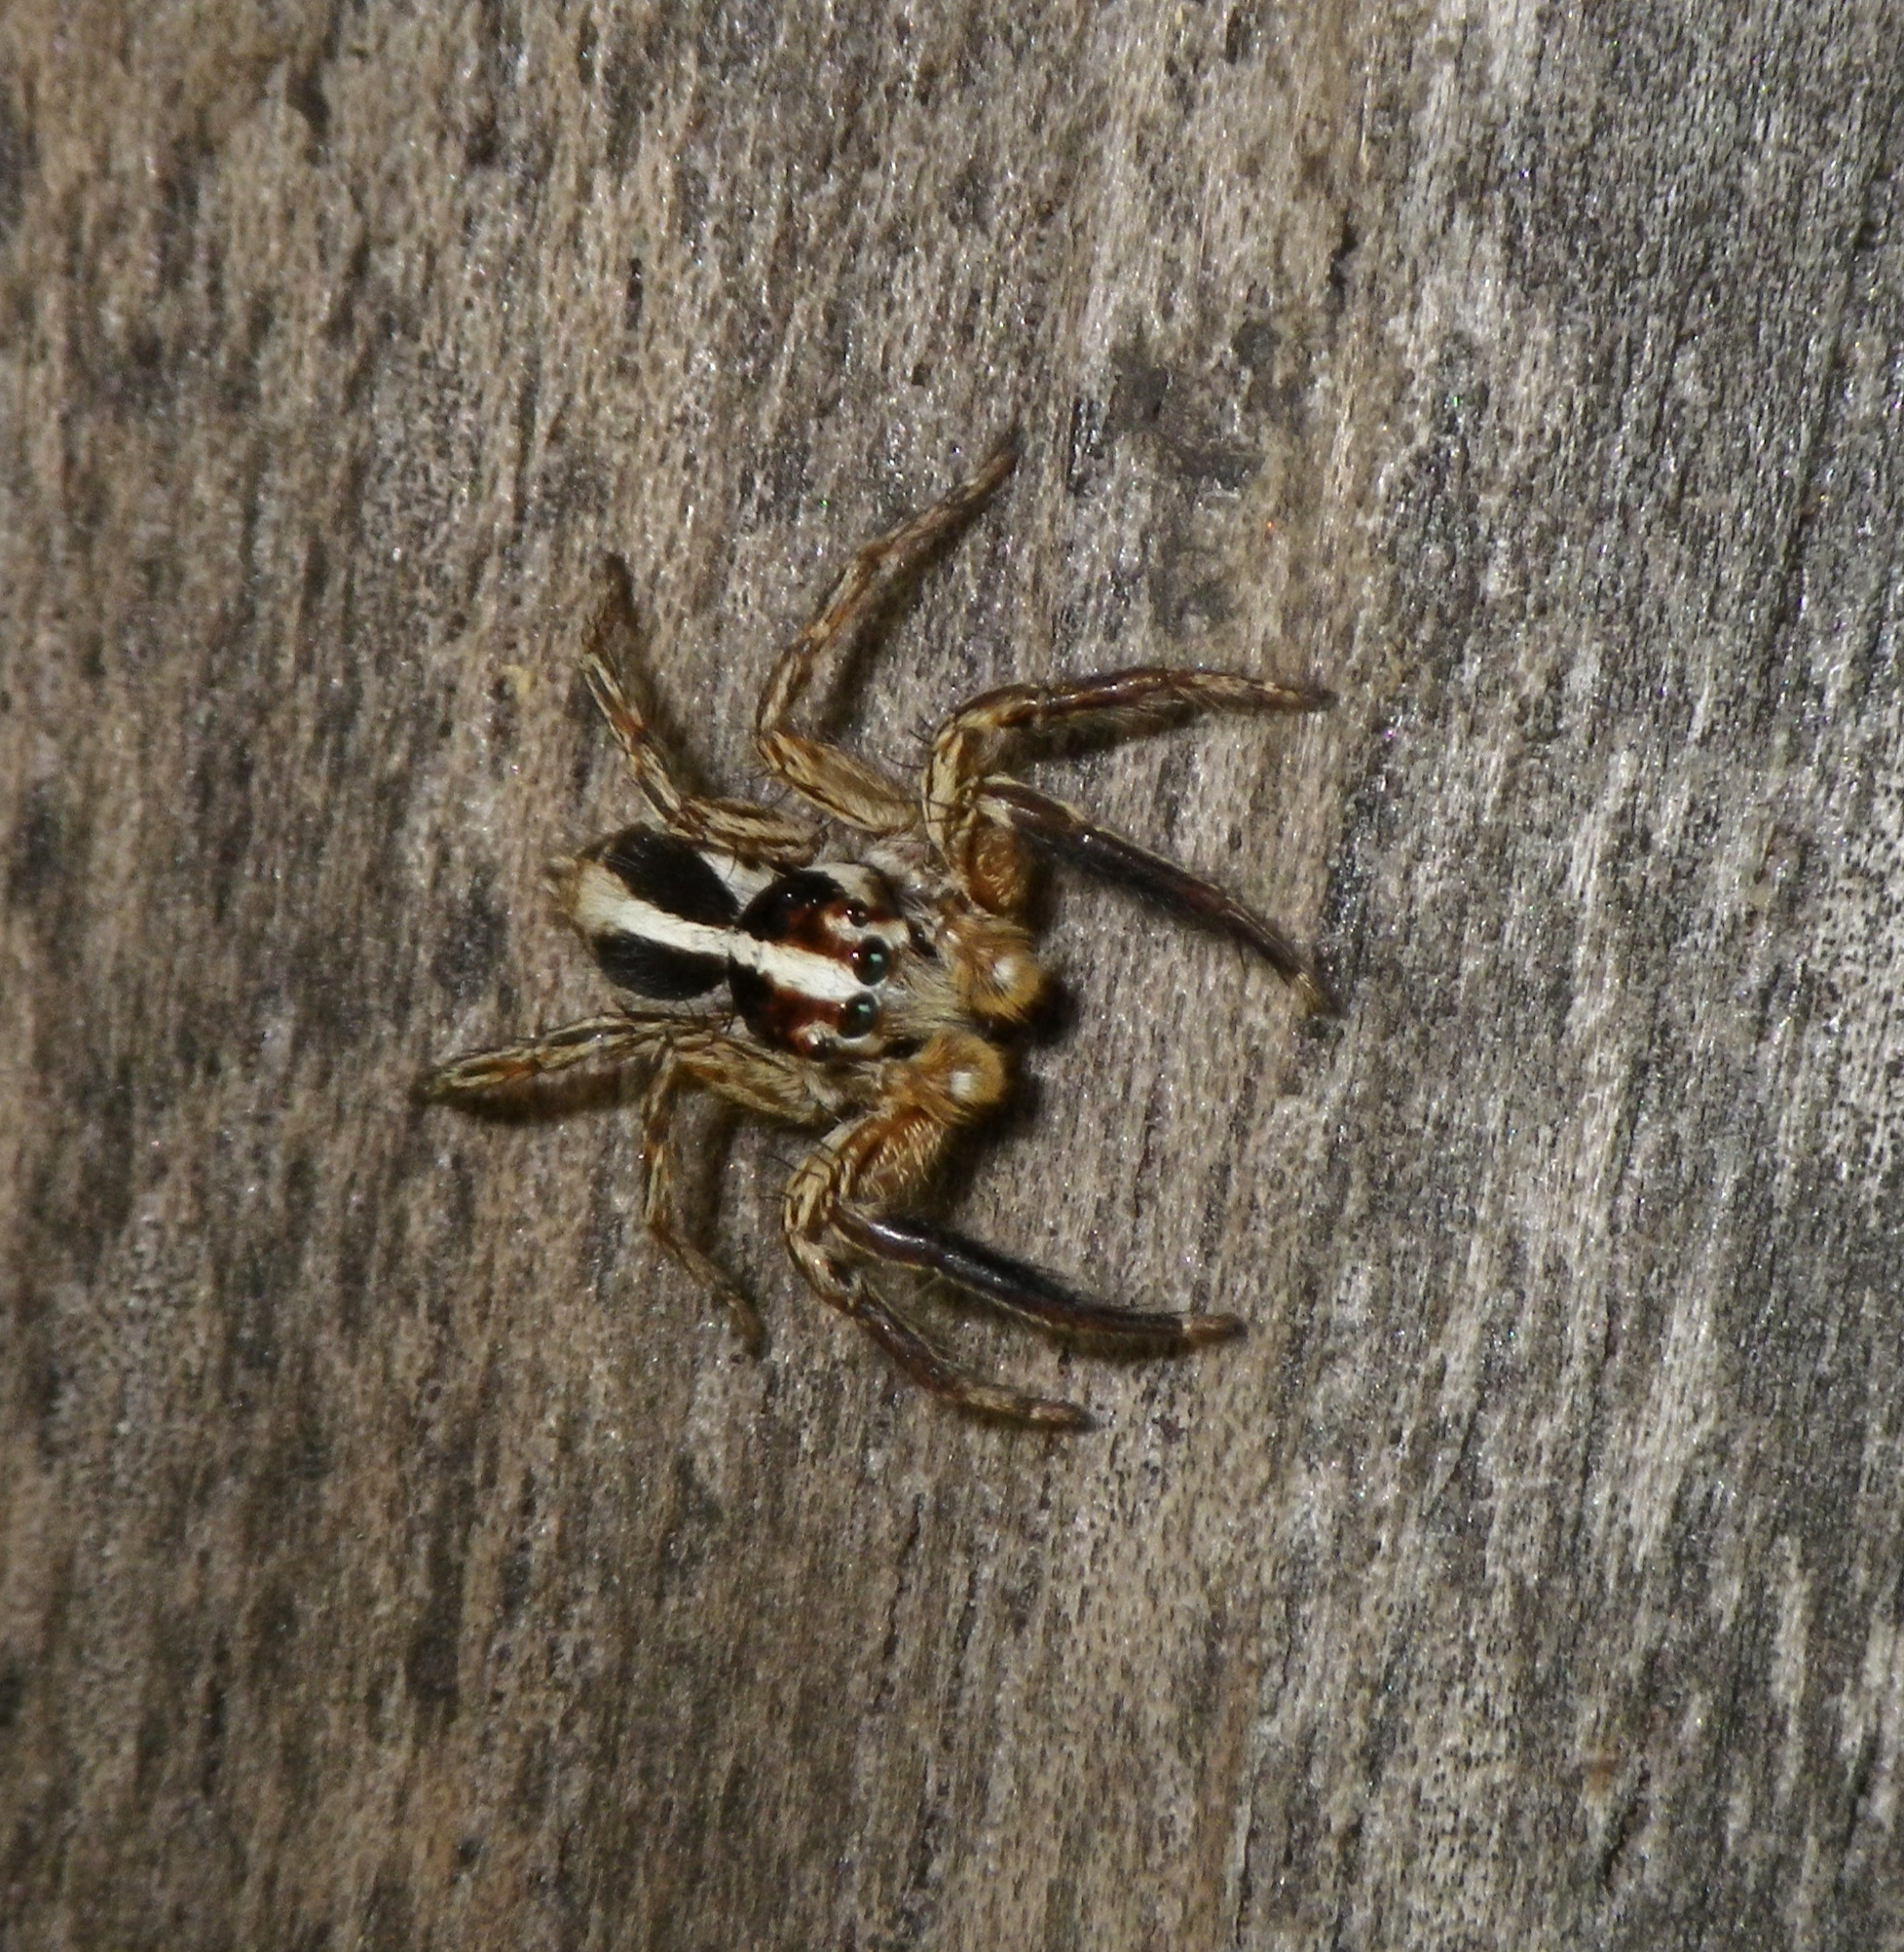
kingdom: Animalia
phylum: Arthropoda
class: Arachnida
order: Araneae
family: Salticidae
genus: Plexippus
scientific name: Plexippus paykulli
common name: Pantropical jumper
